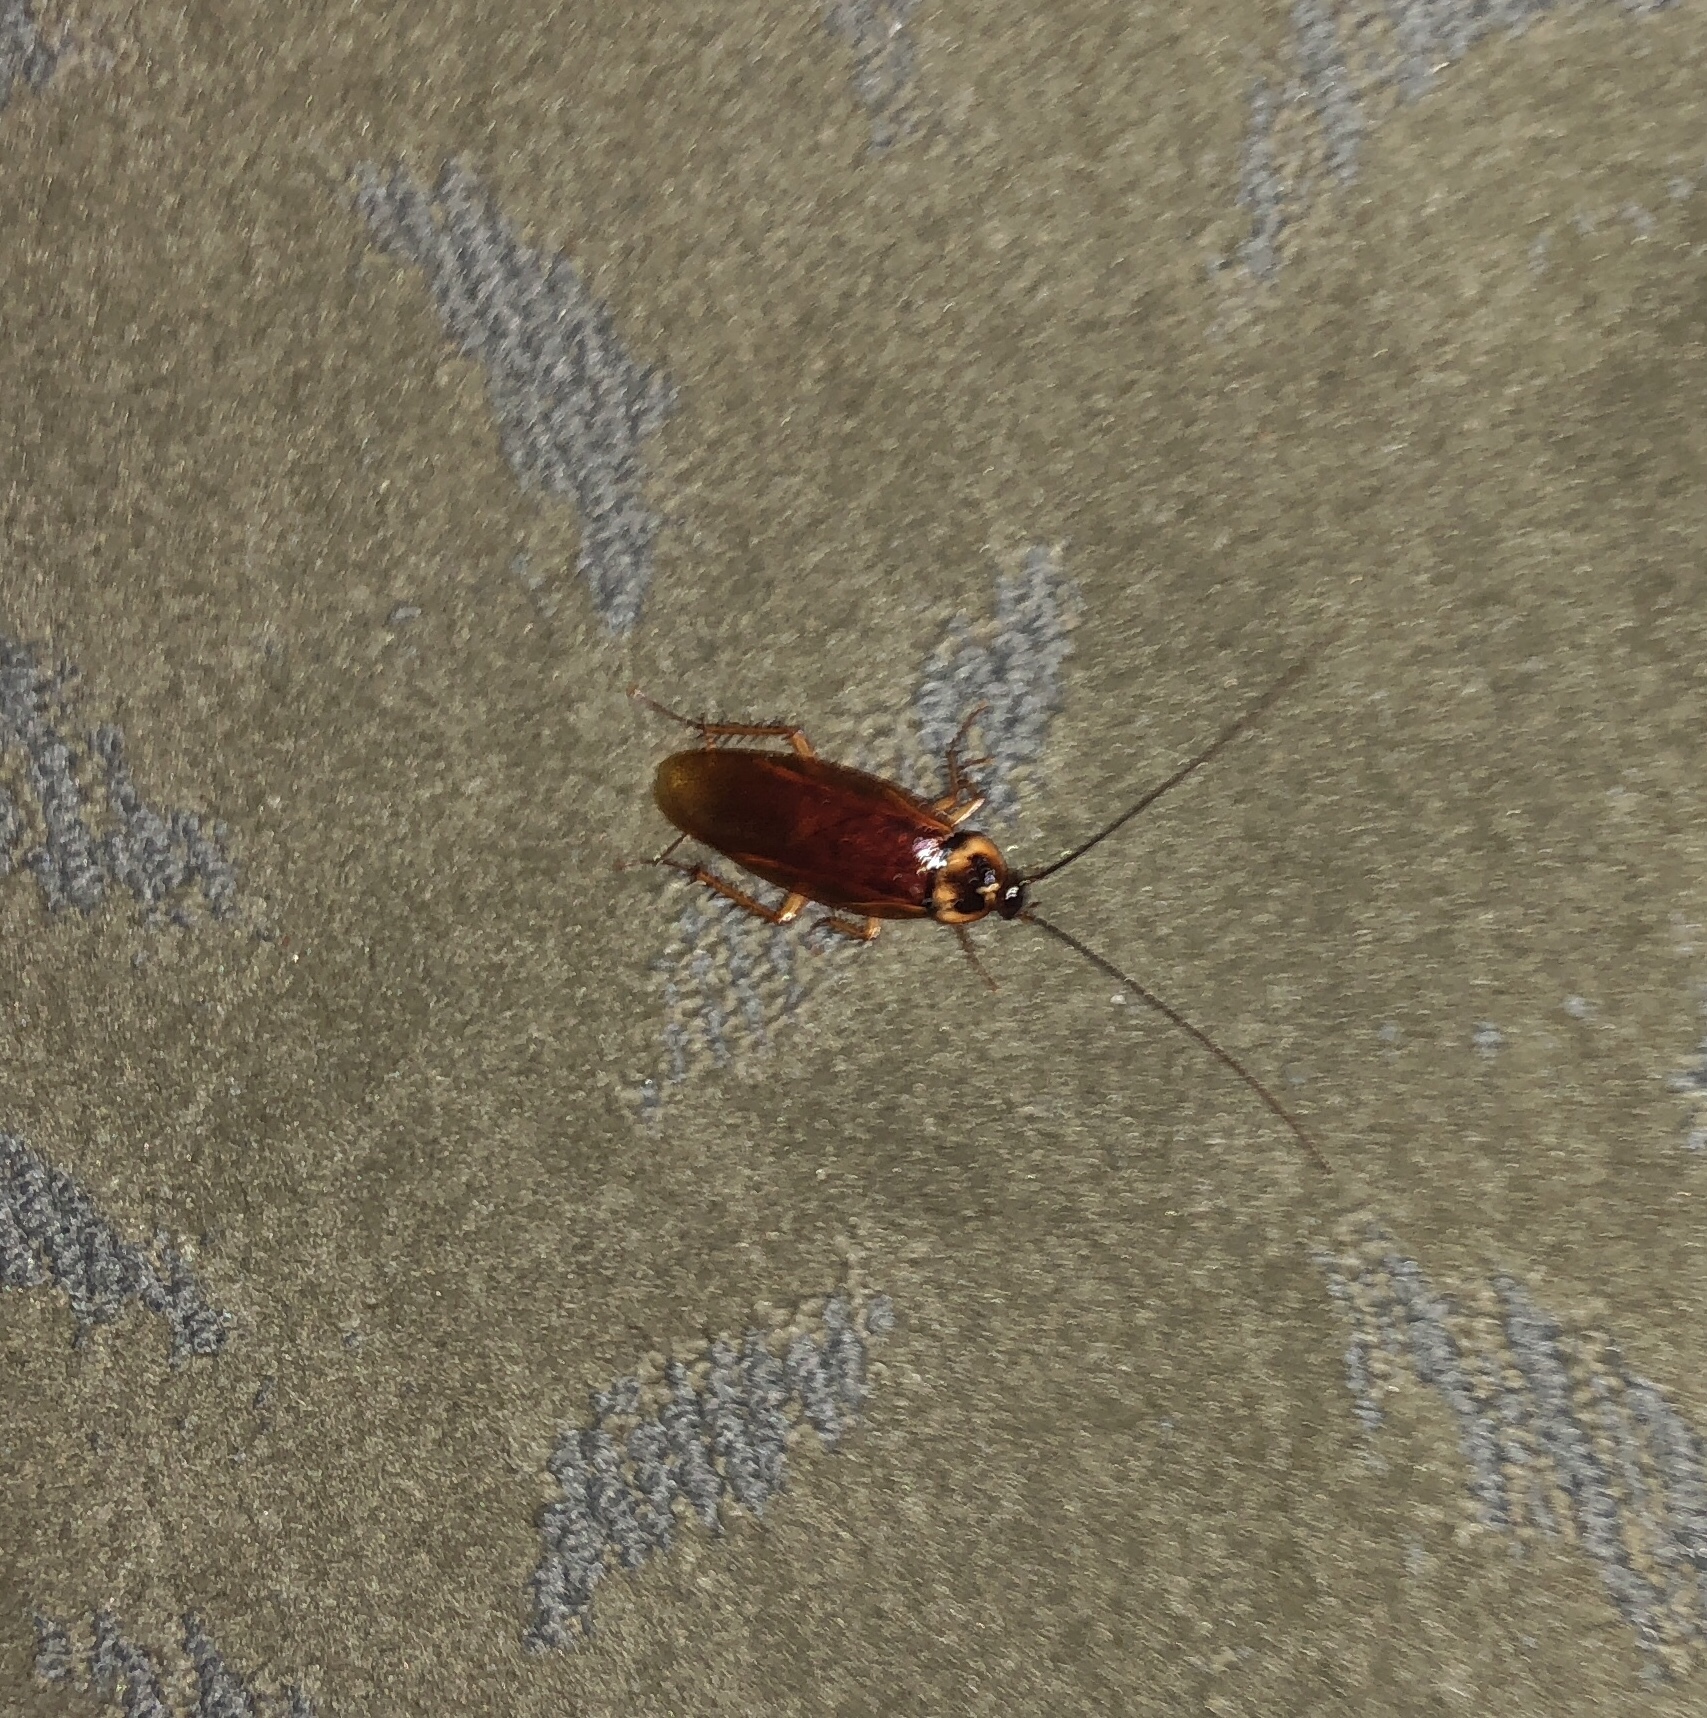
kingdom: Animalia
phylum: Arthropoda
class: Insecta
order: Blattodea
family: Blattidae
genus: Periplaneta
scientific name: Periplaneta americana
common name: American cockroach
